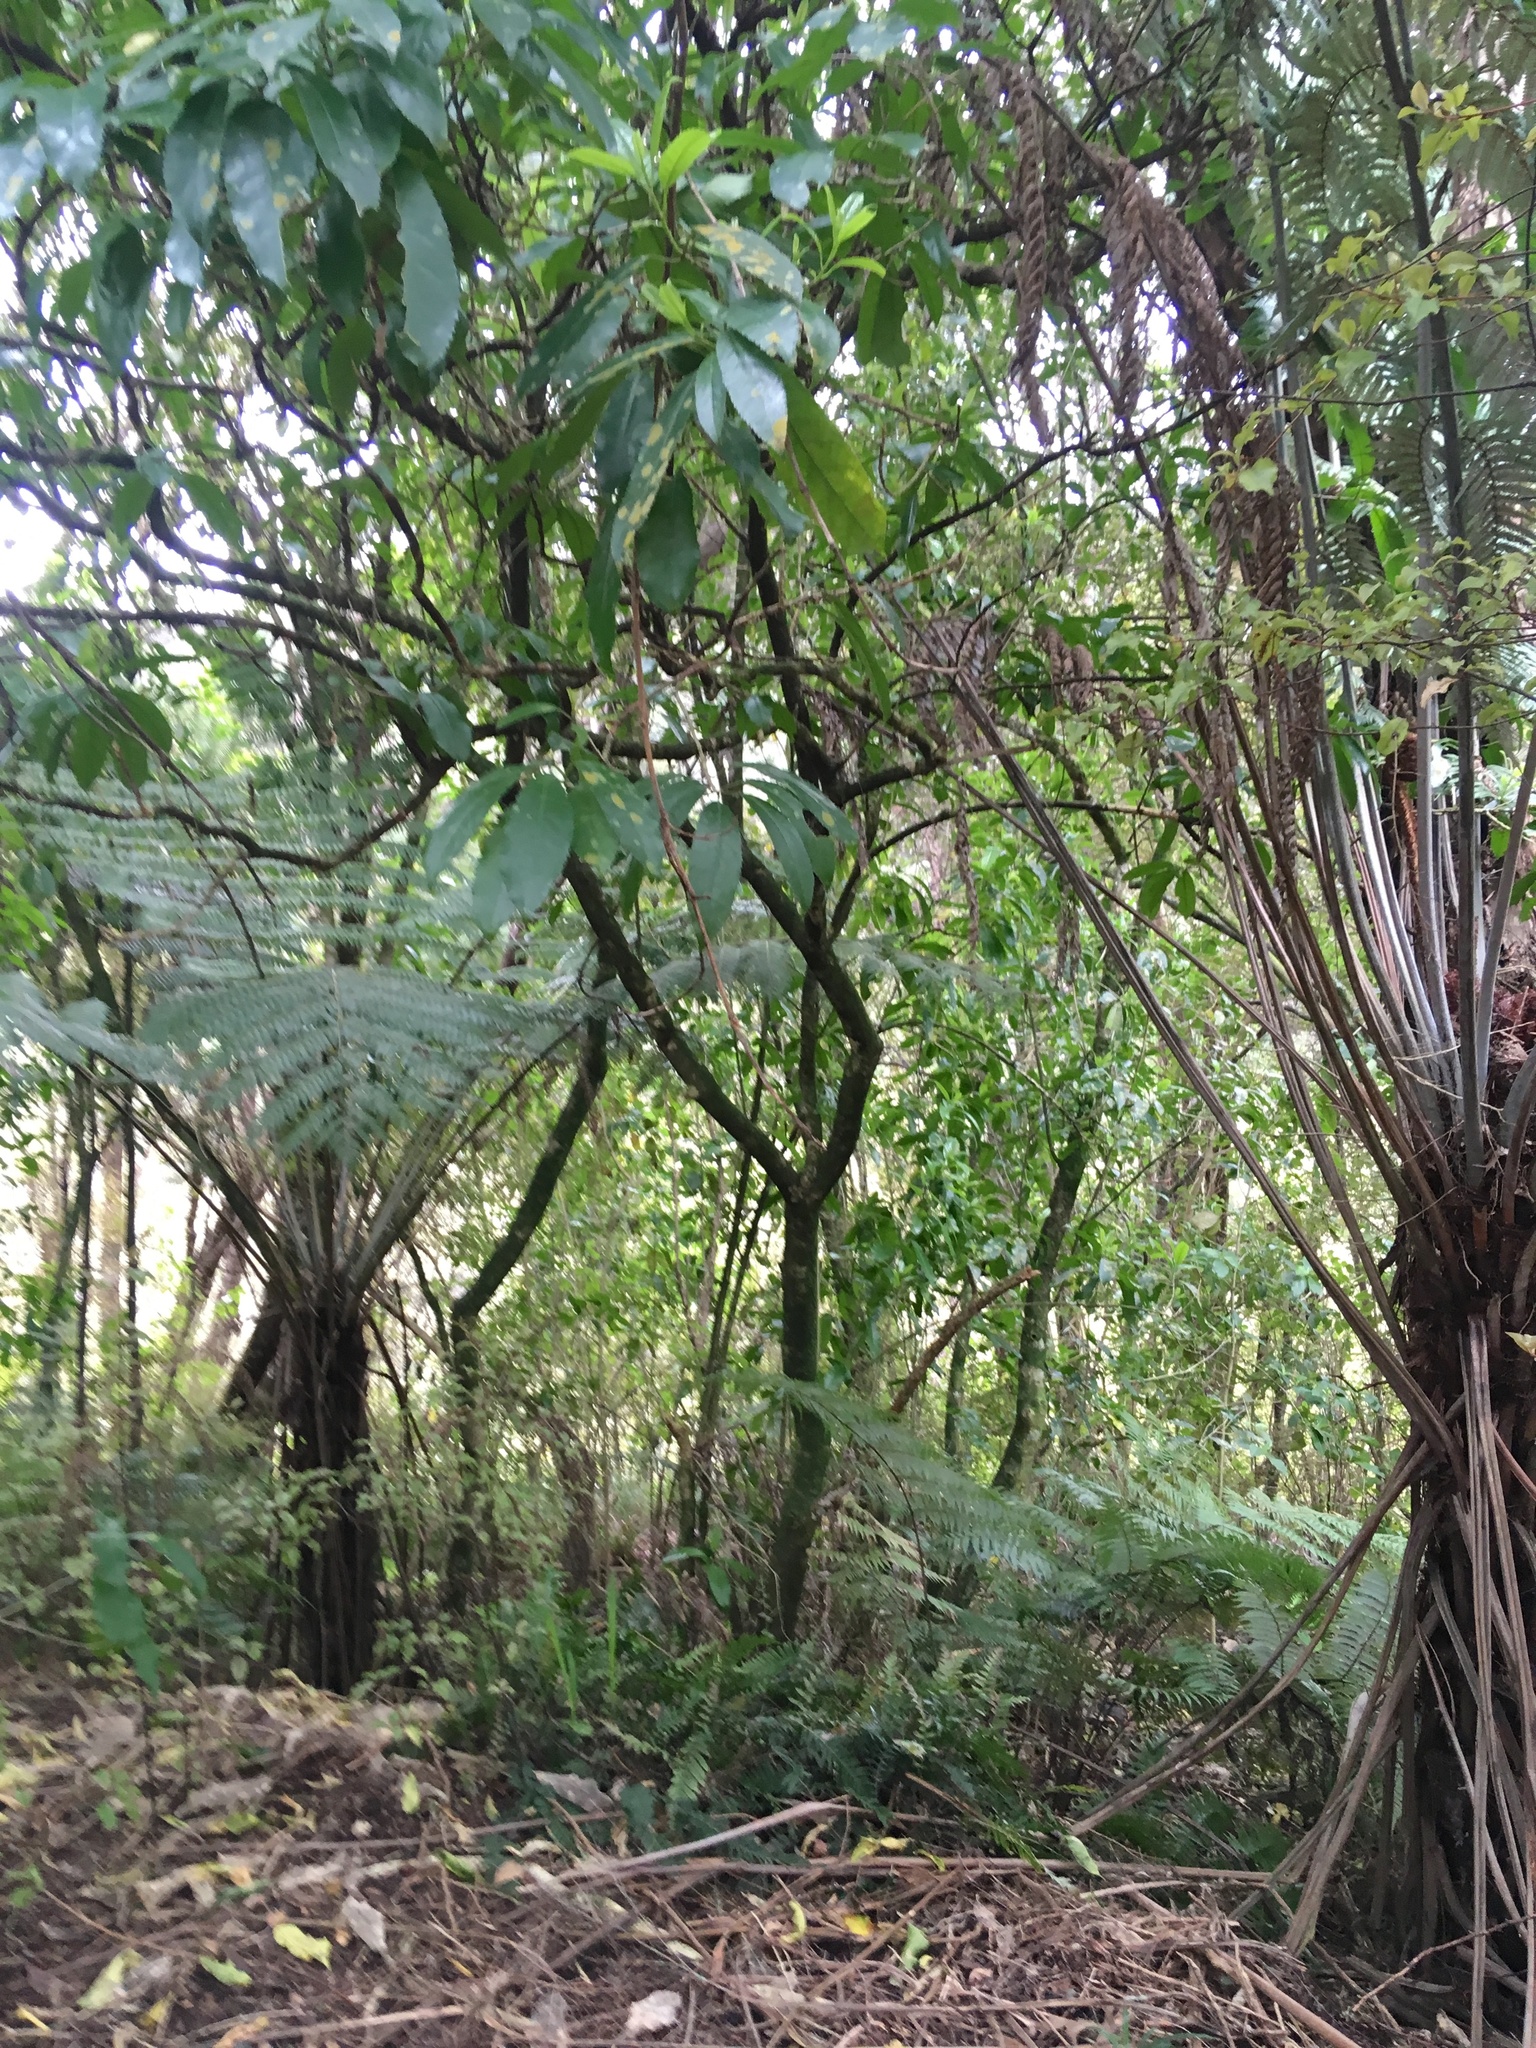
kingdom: Plantae
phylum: Tracheophyta
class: Polypodiopsida
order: Cyatheales
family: Cyatheaceae
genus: Alsophila
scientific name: Alsophila dealbata
